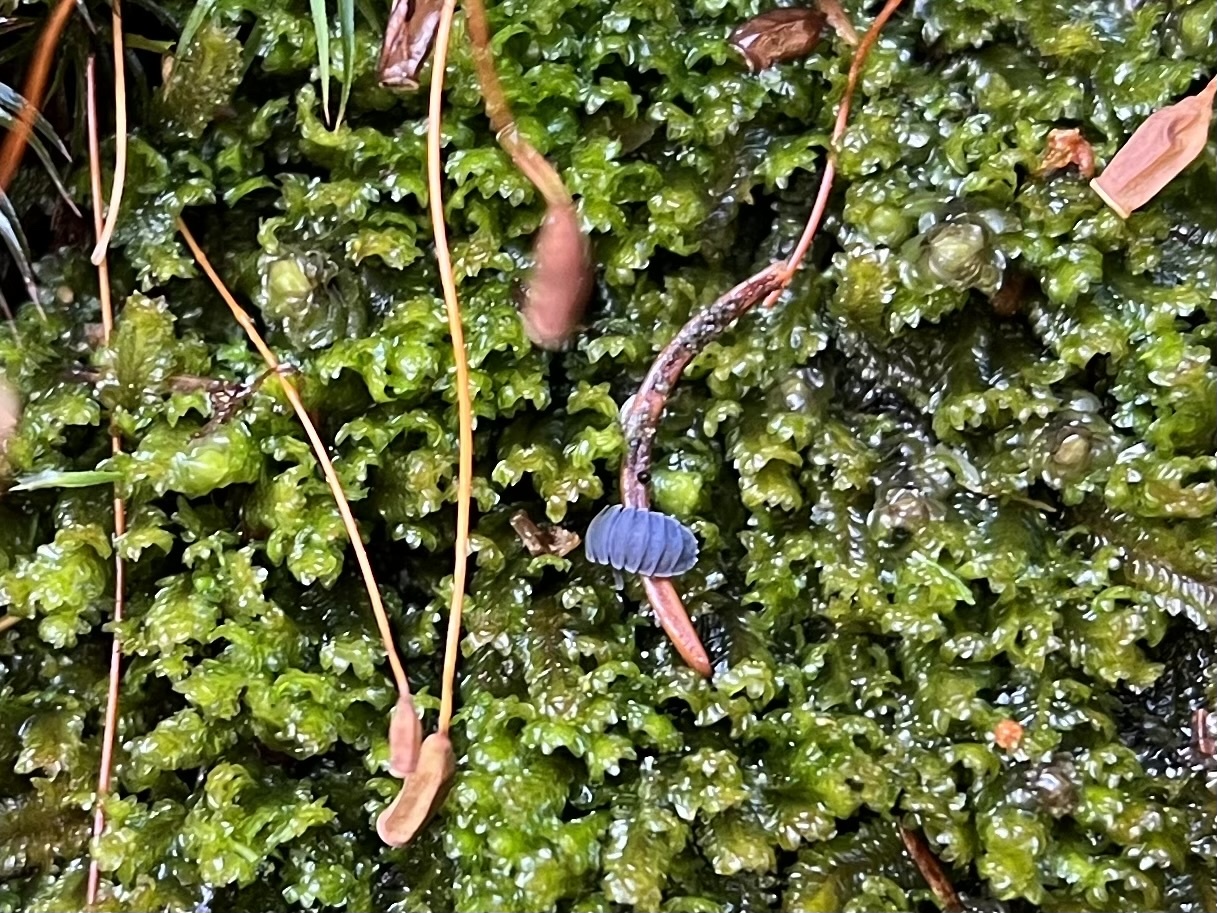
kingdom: Animalia
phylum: Arthropoda
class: Collembola
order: Poduromorpha
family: Onychiuridae
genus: Tetrodontophora
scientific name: Tetrodontophora bielanensis
